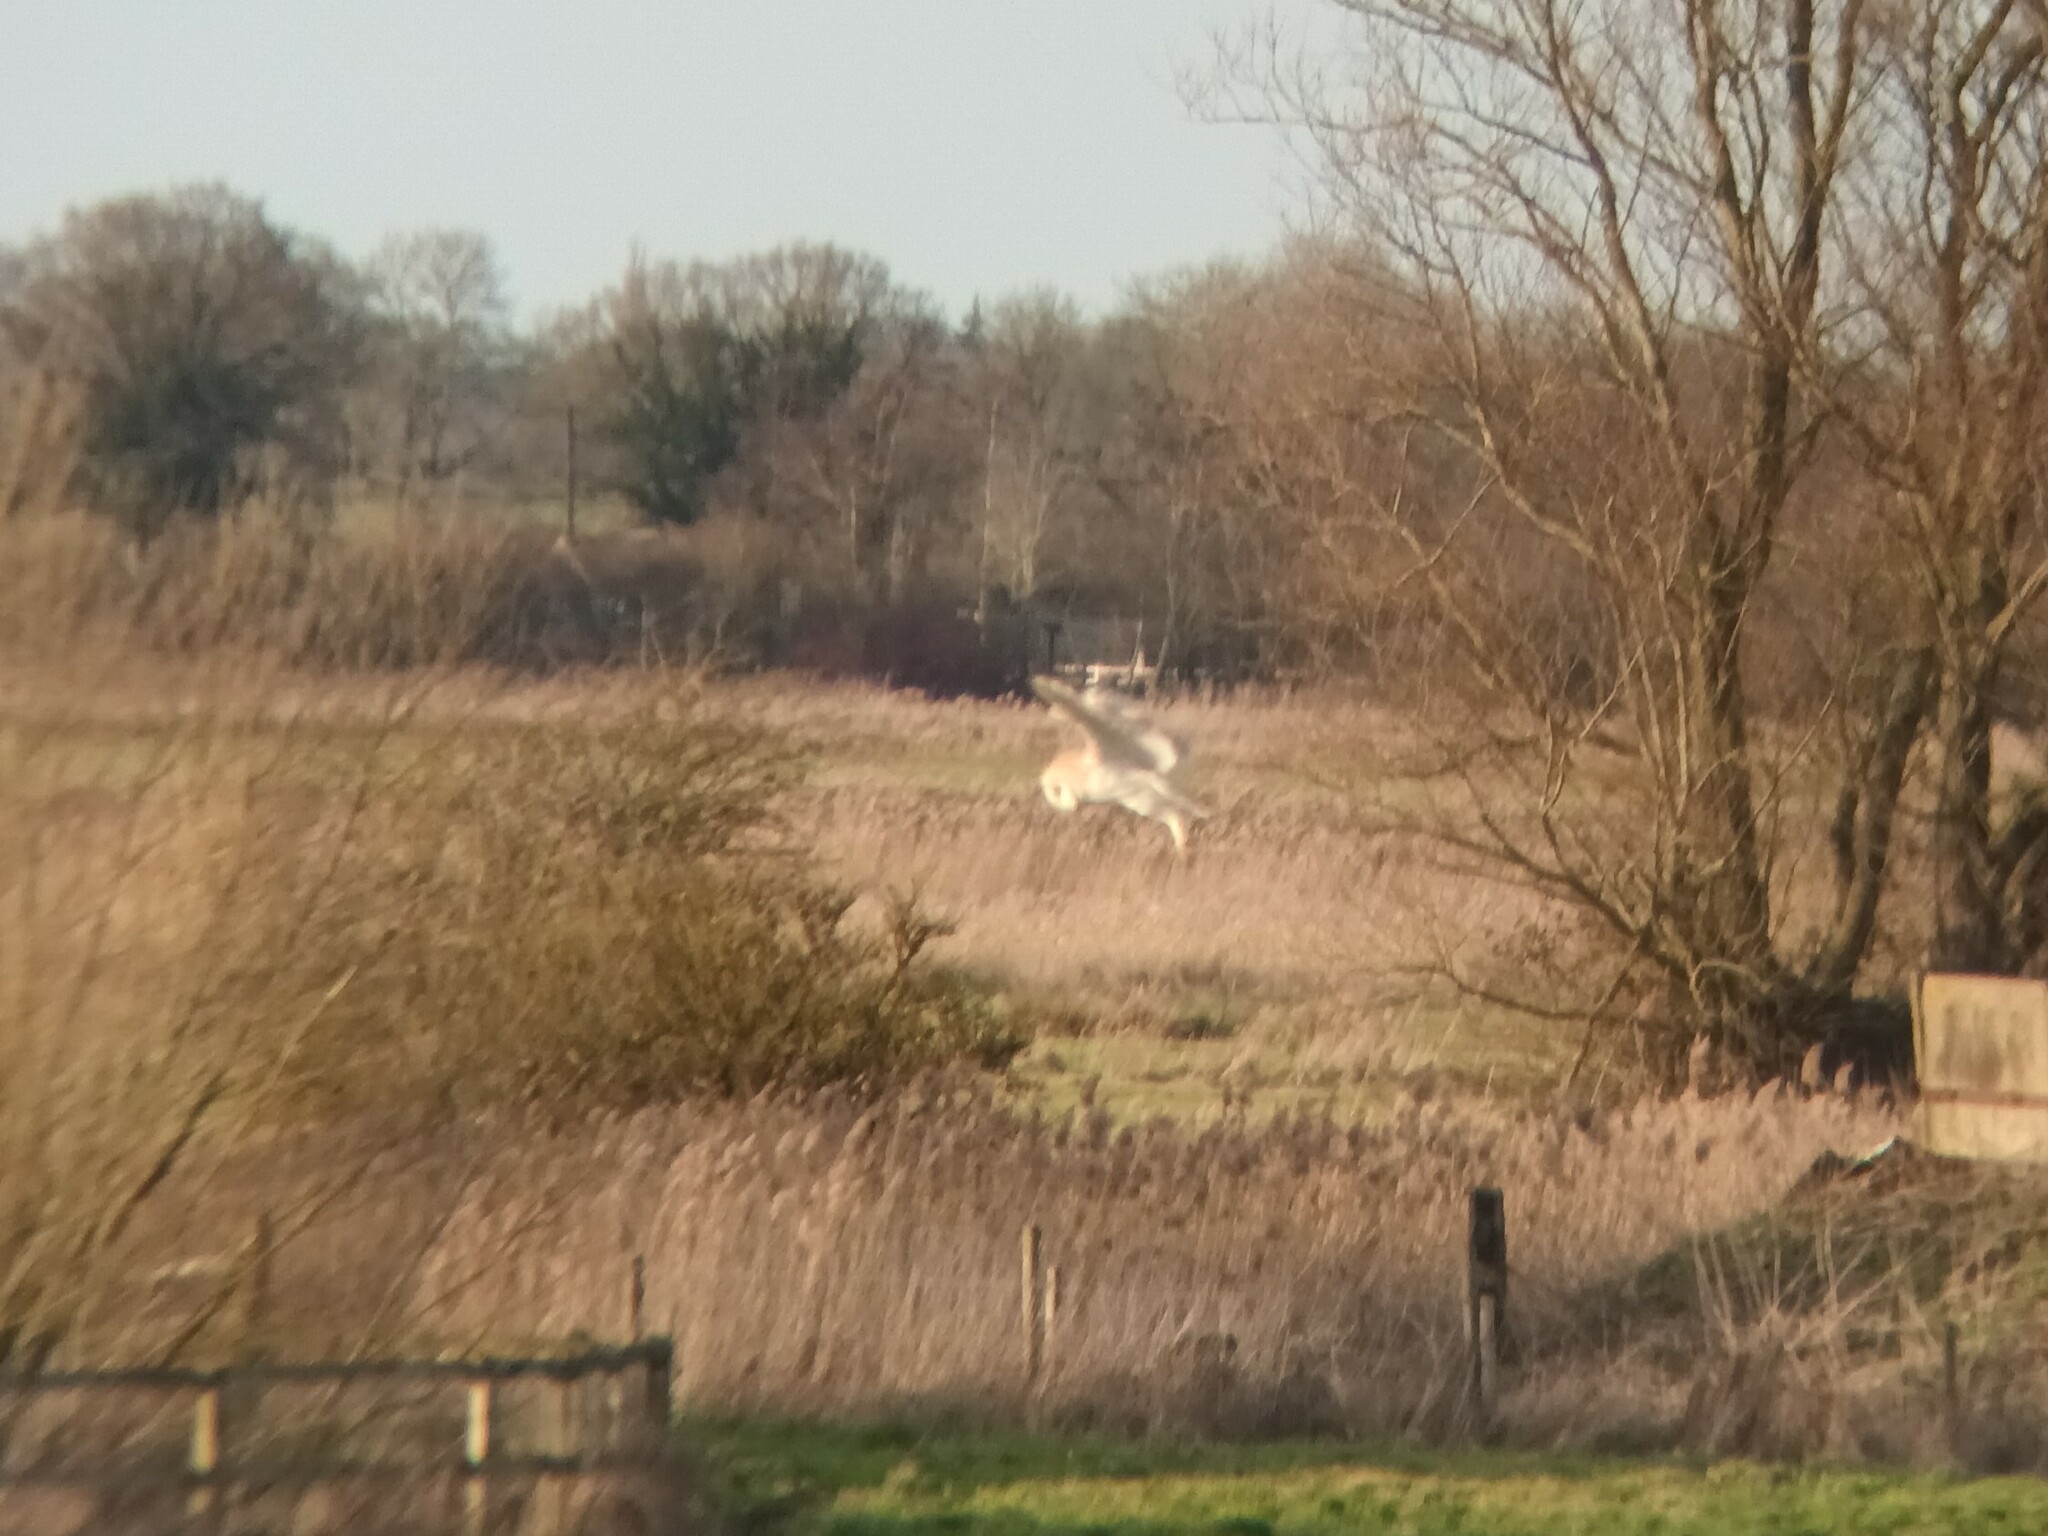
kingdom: Animalia
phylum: Chordata
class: Aves
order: Strigiformes
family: Tytonidae
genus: Tyto
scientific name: Tyto alba
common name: Barn owl
